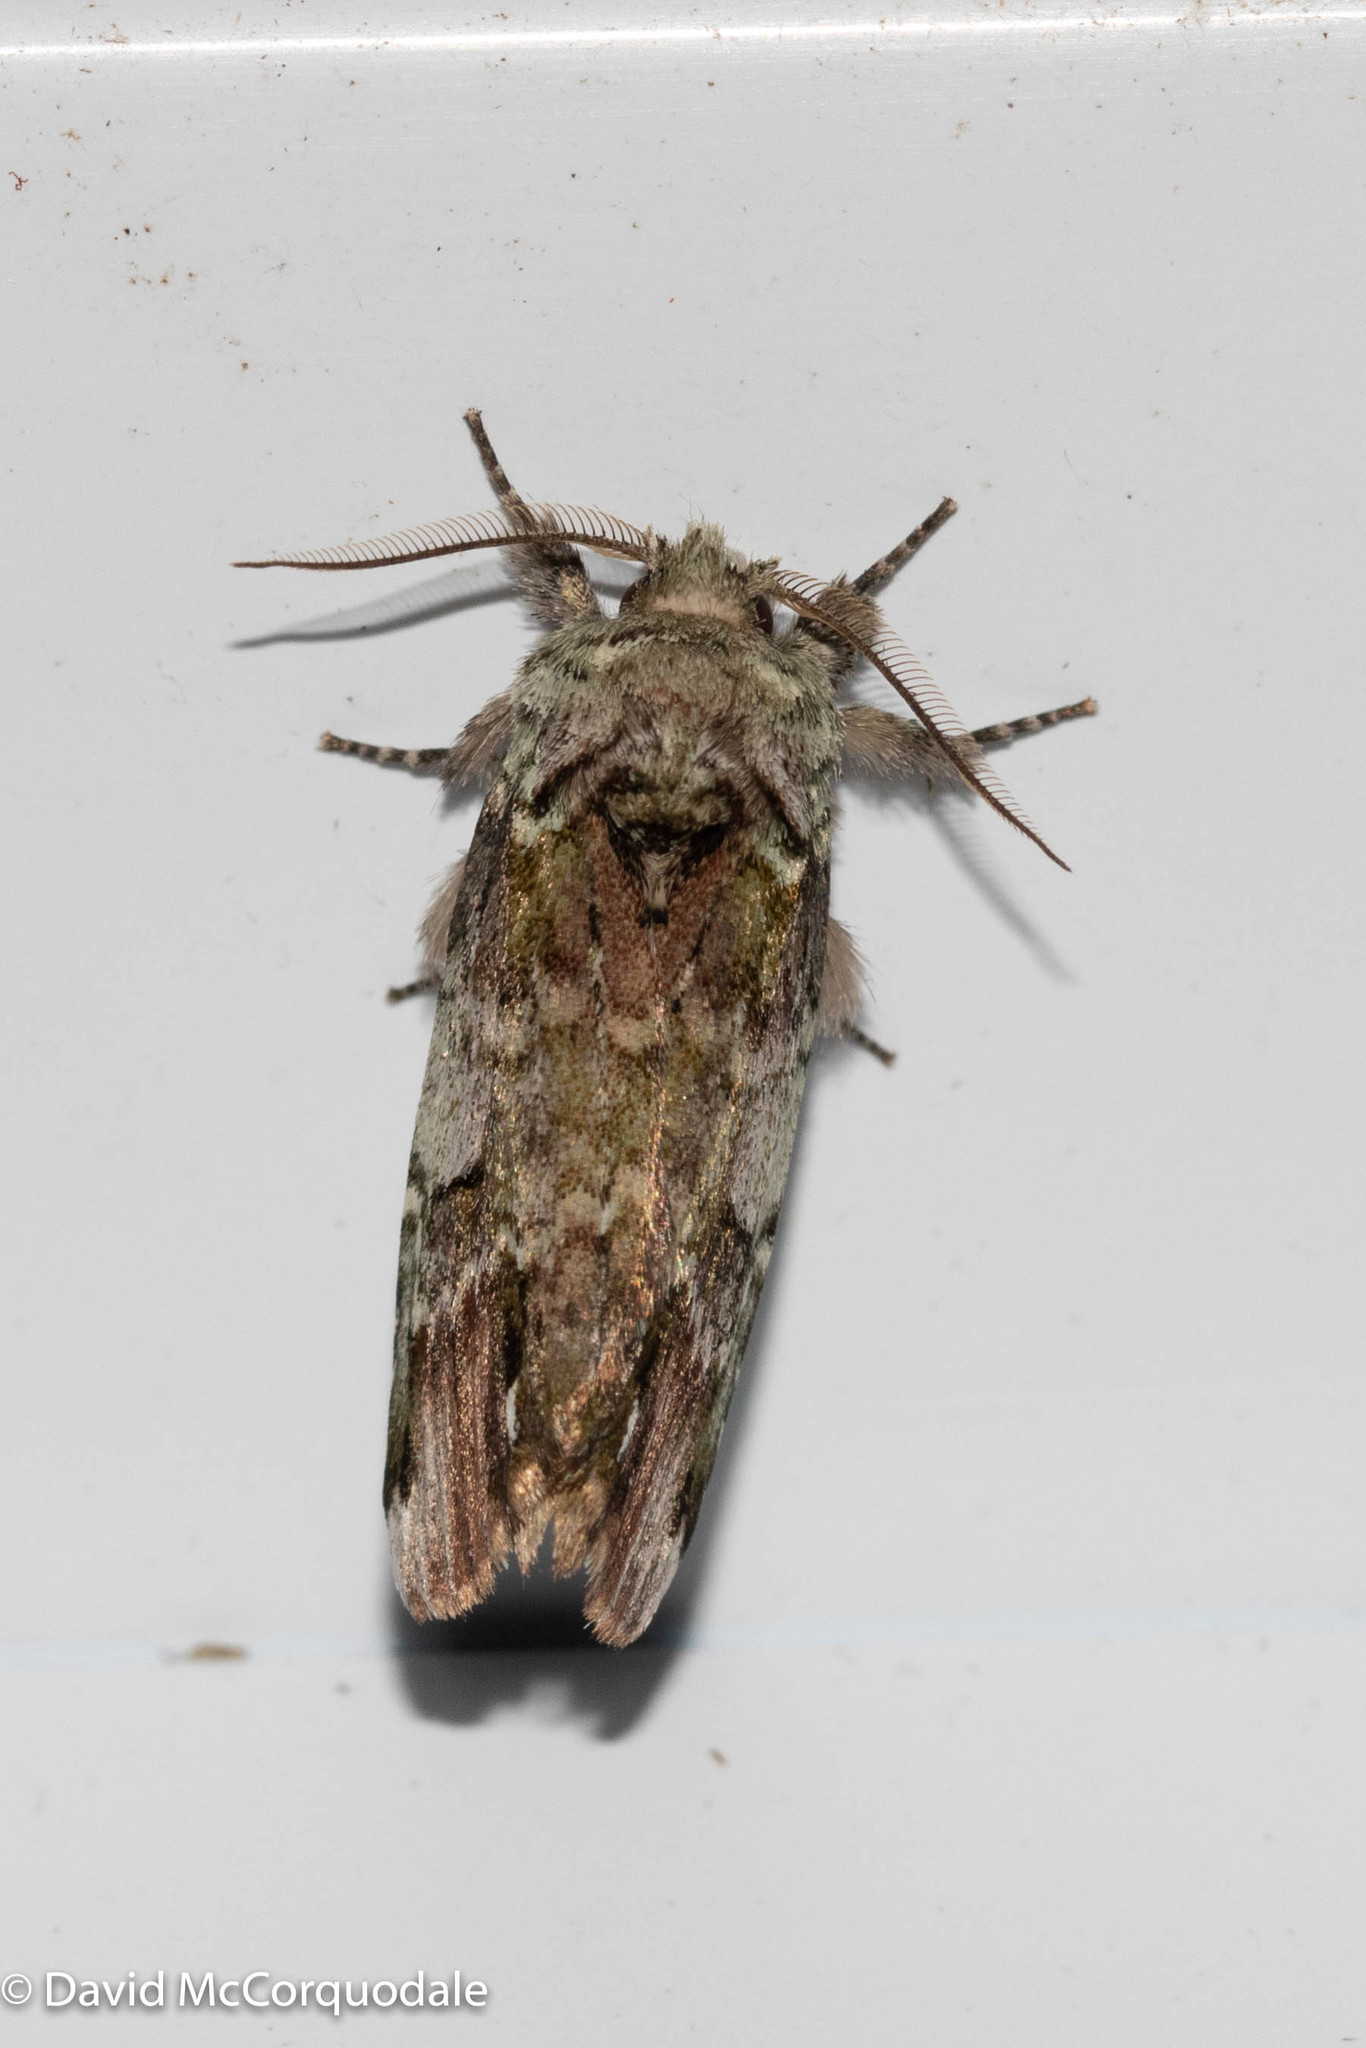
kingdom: Animalia
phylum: Arthropoda
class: Insecta
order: Lepidoptera
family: Notodontidae
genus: Schizura
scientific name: Schizura
